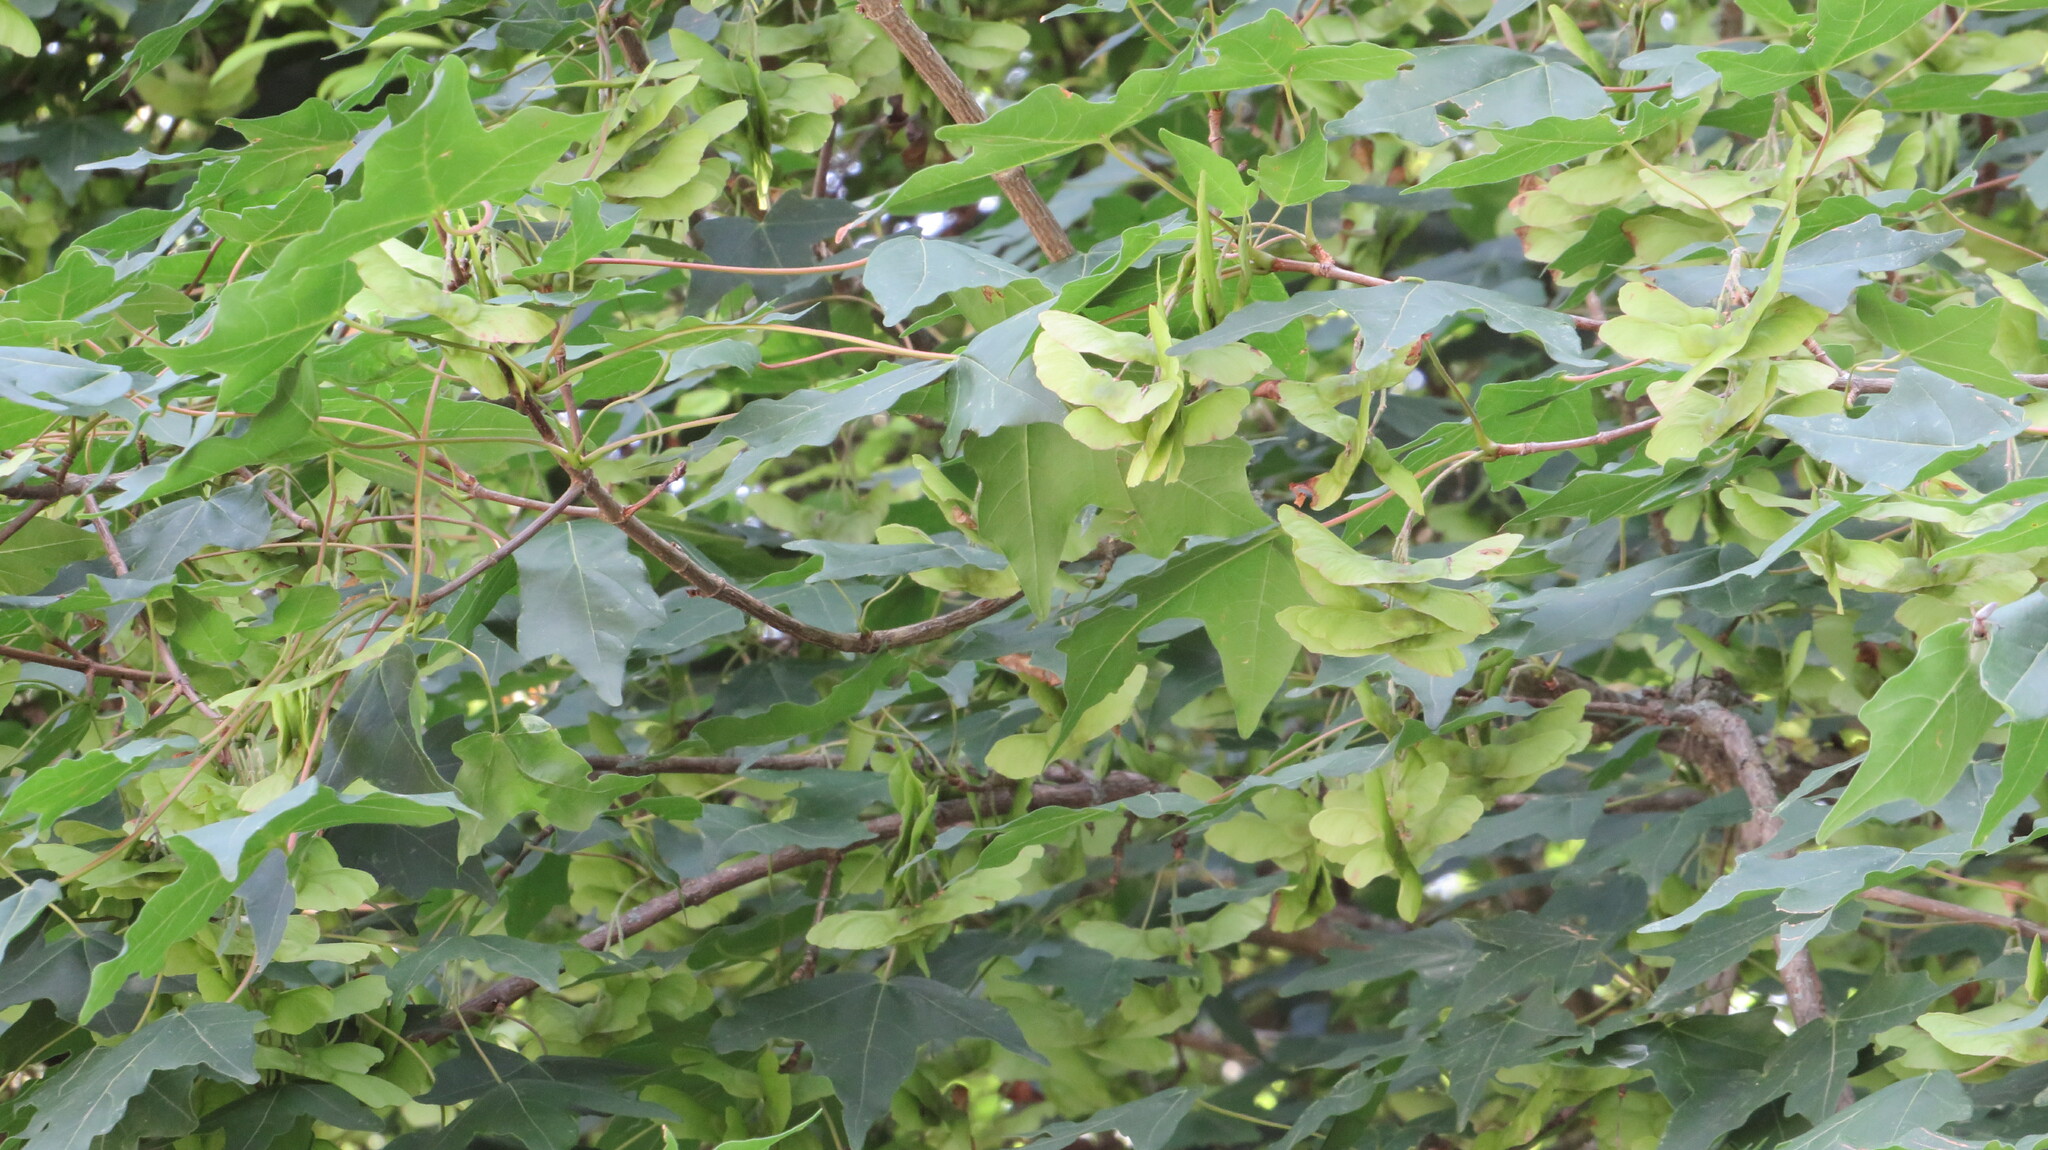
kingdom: Plantae
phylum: Tracheophyta
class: Magnoliopsida
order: Sapindales
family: Sapindaceae
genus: Acer
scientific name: Acer campestre
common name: Field maple
